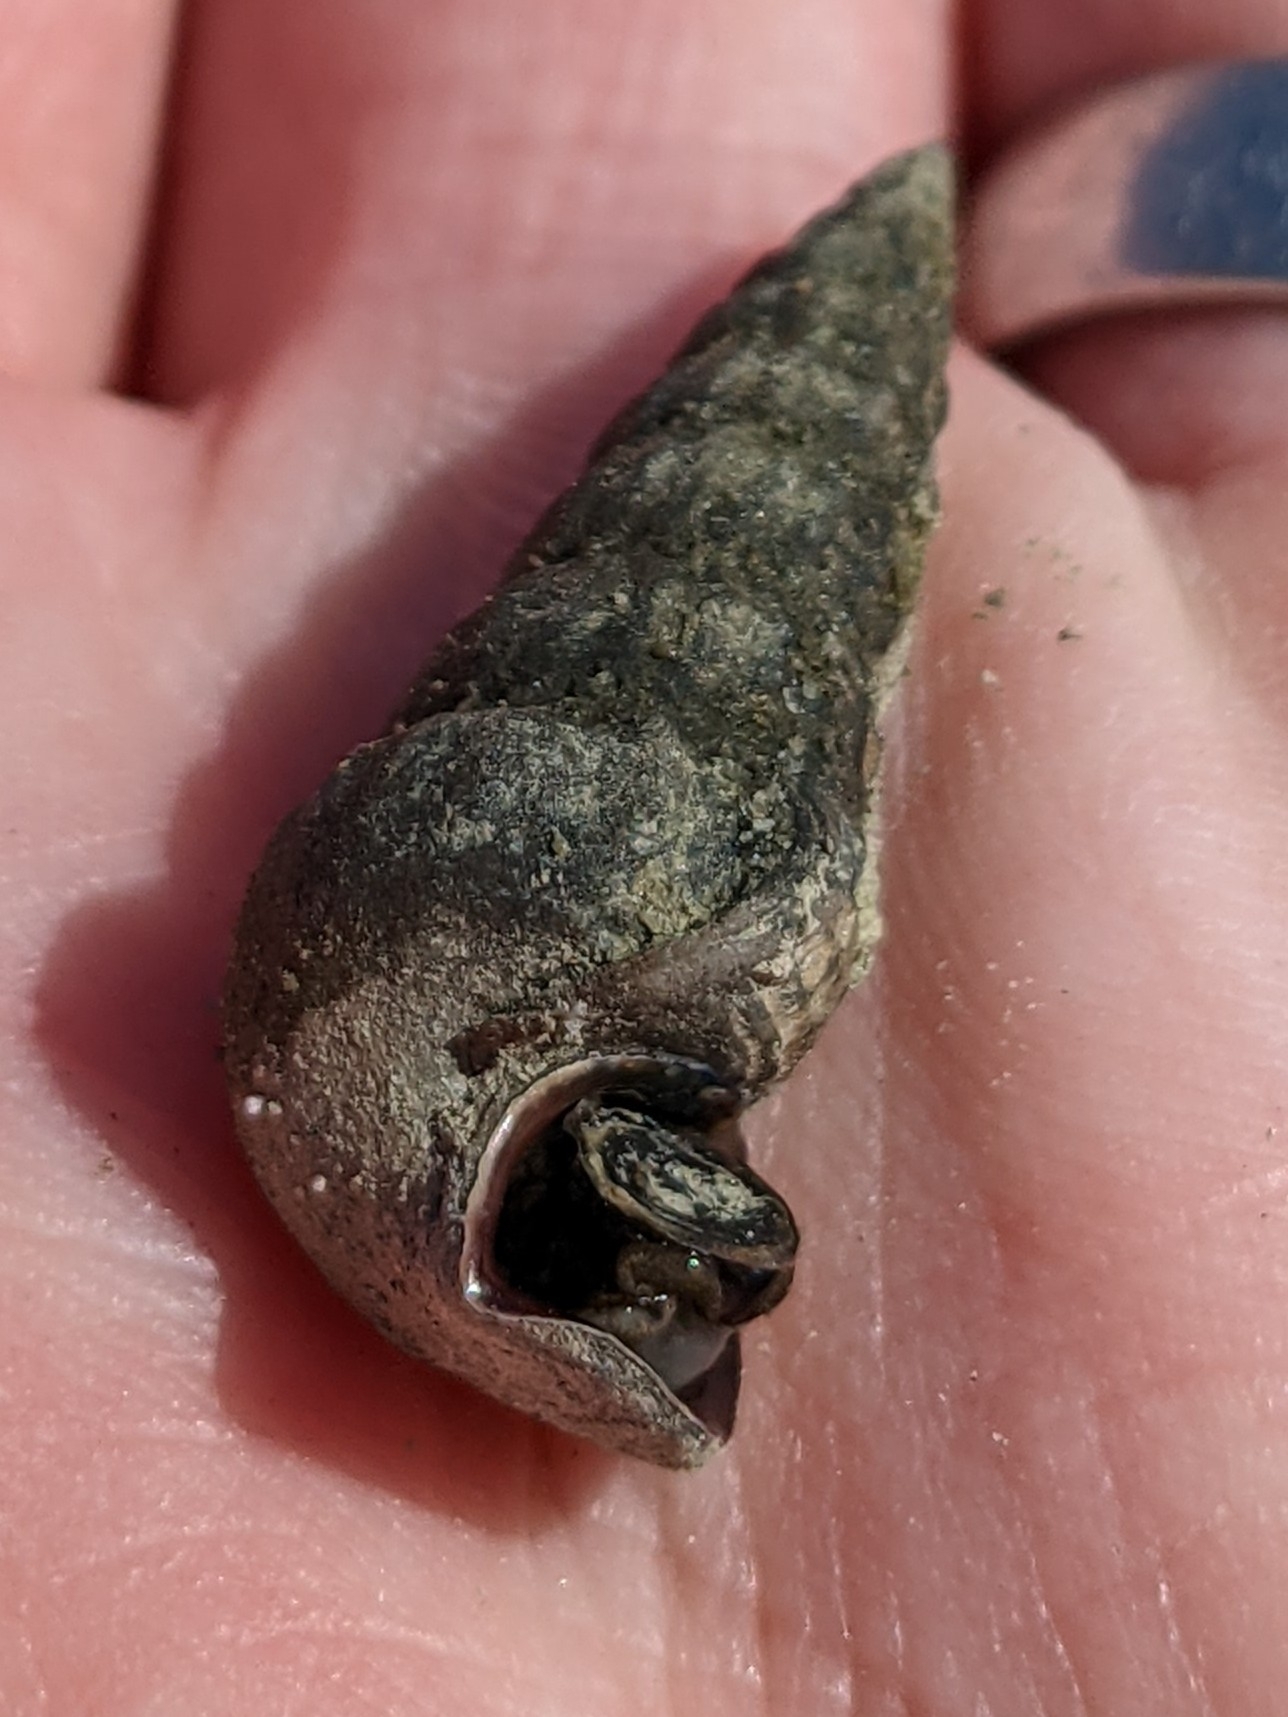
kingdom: Animalia
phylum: Mollusca
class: Gastropoda
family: Potamididae
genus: Cerithideopsis
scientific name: Cerithideopsis californica
